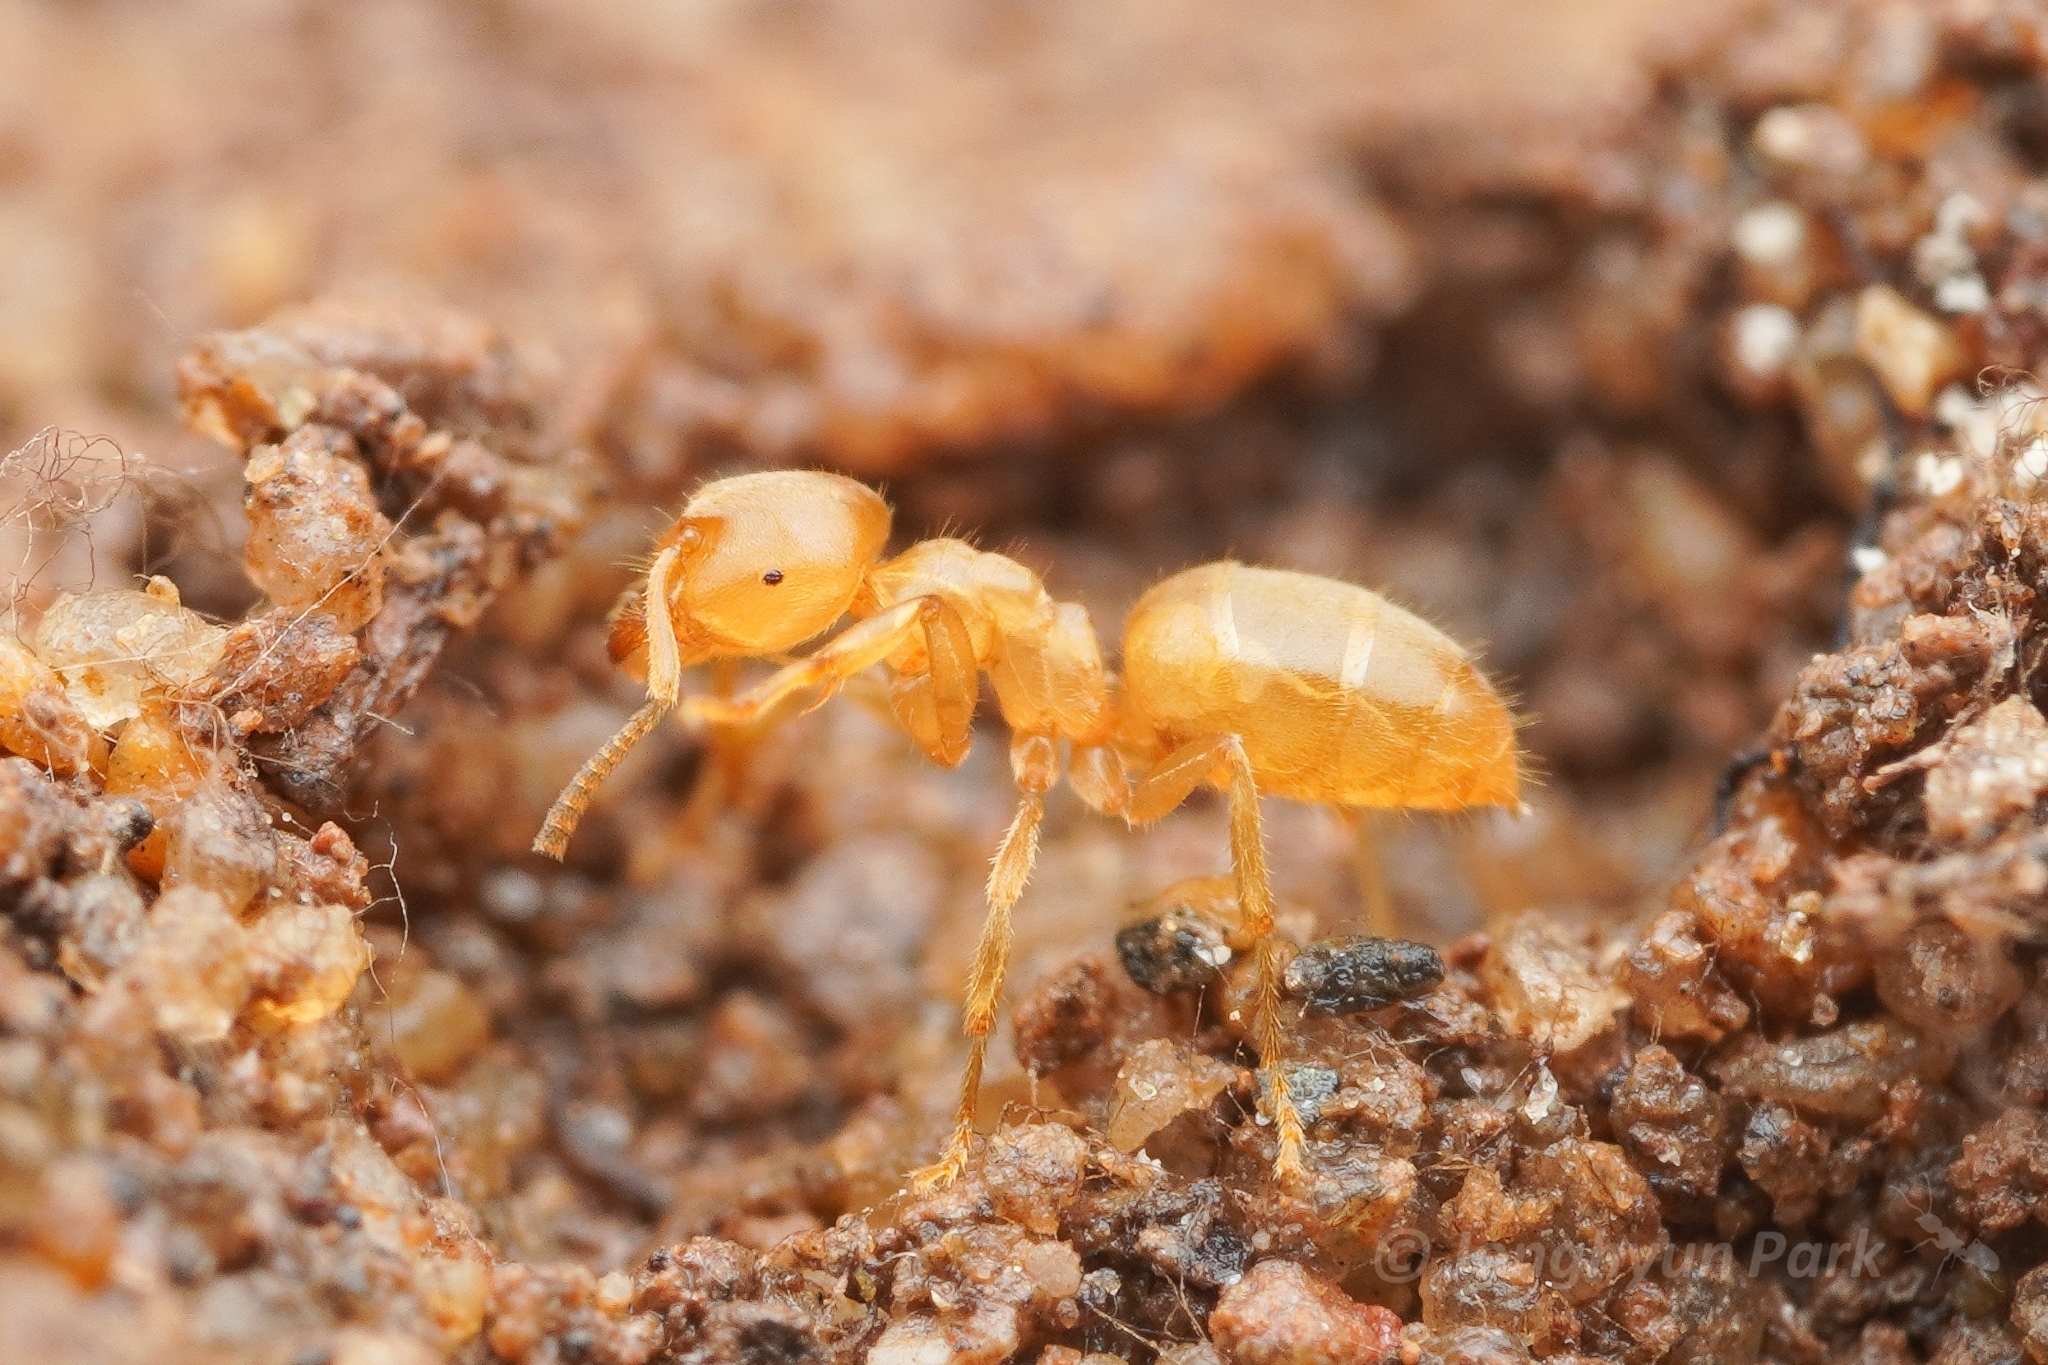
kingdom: Animalia
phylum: Arthropoda
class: Insecta
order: Hymenoptera
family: Formicidae
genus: Lasius
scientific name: Lasius talpa
